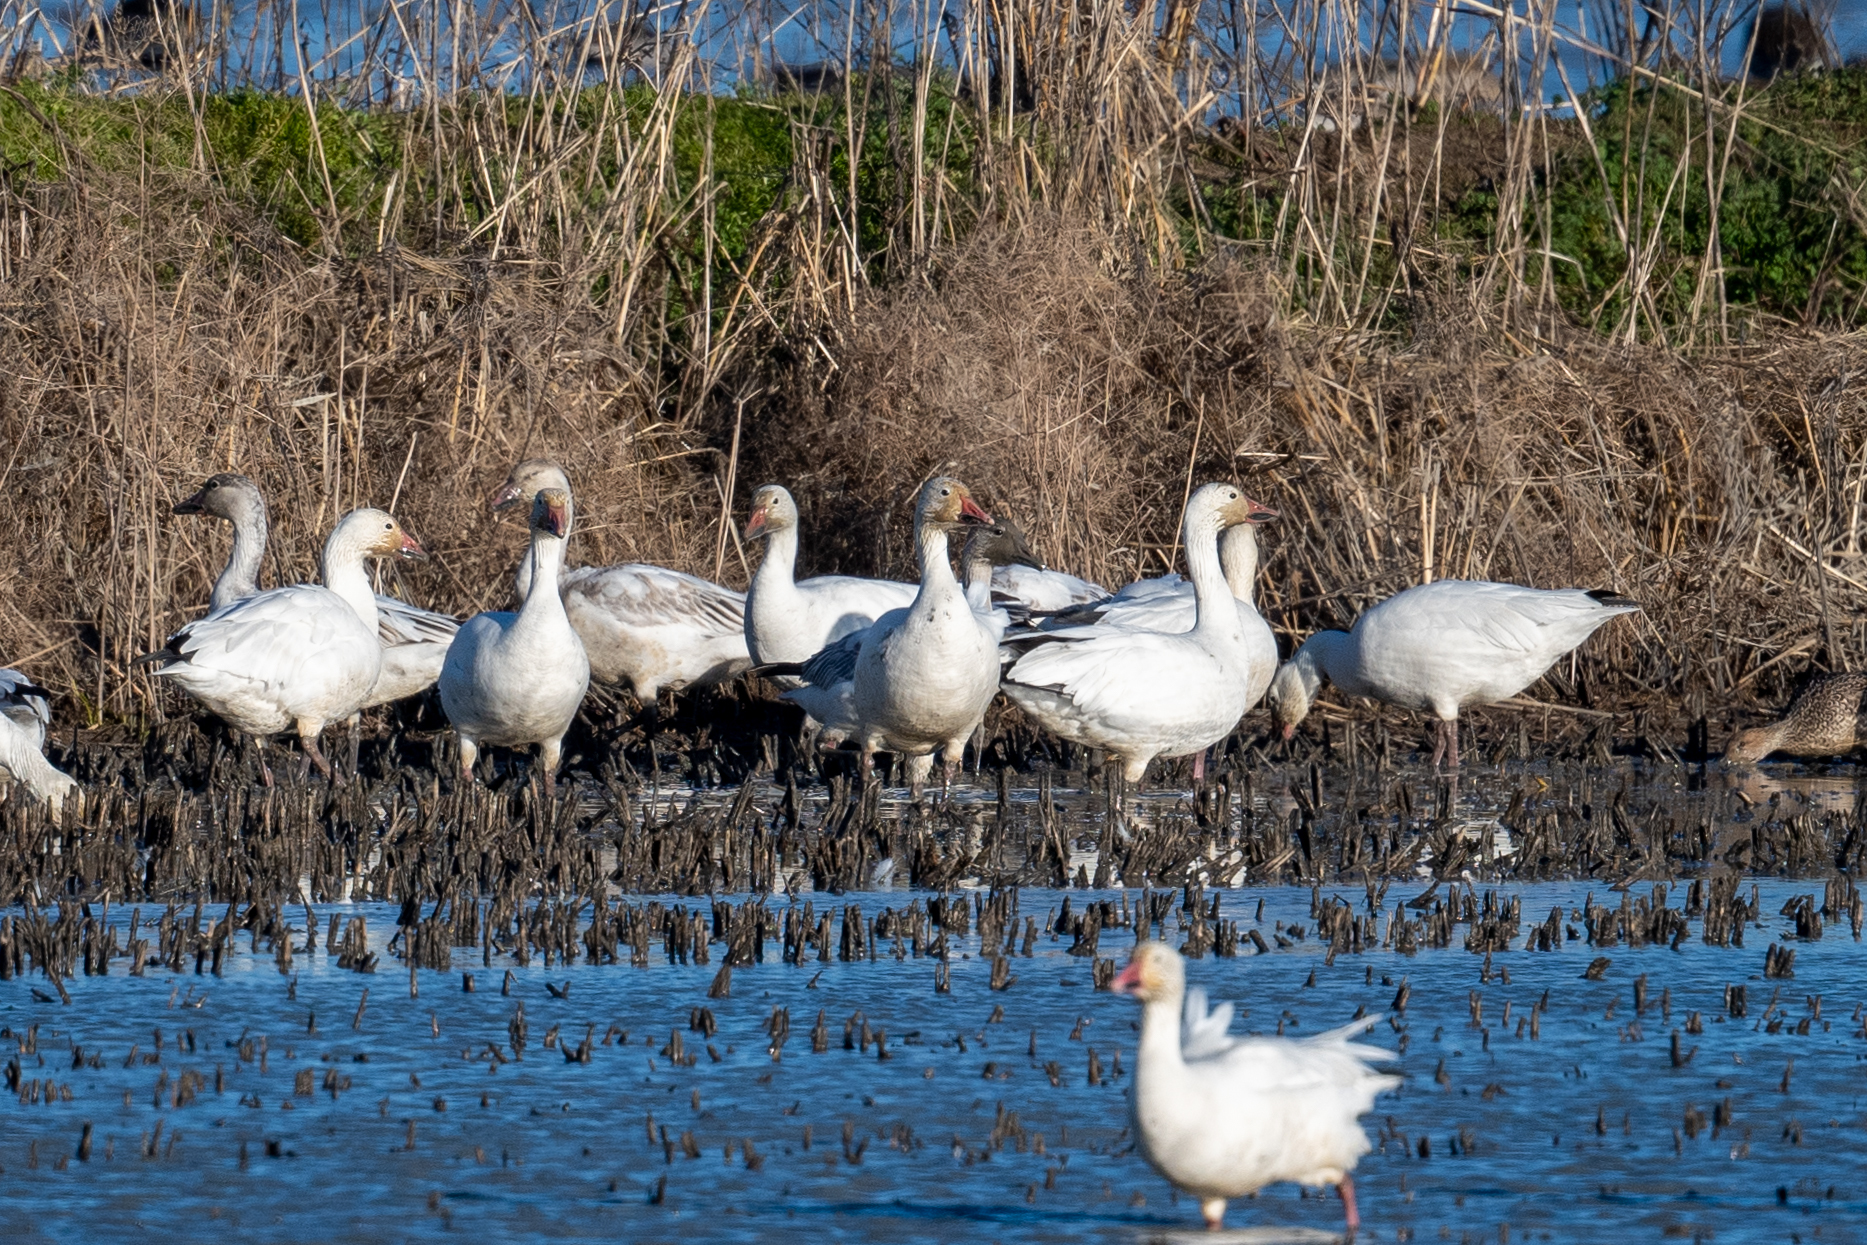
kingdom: Animalia
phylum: Chordata
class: Aves
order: Anseriformes
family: Anatidae
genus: Anser
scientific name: Anser caerulescens
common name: Snow goose
